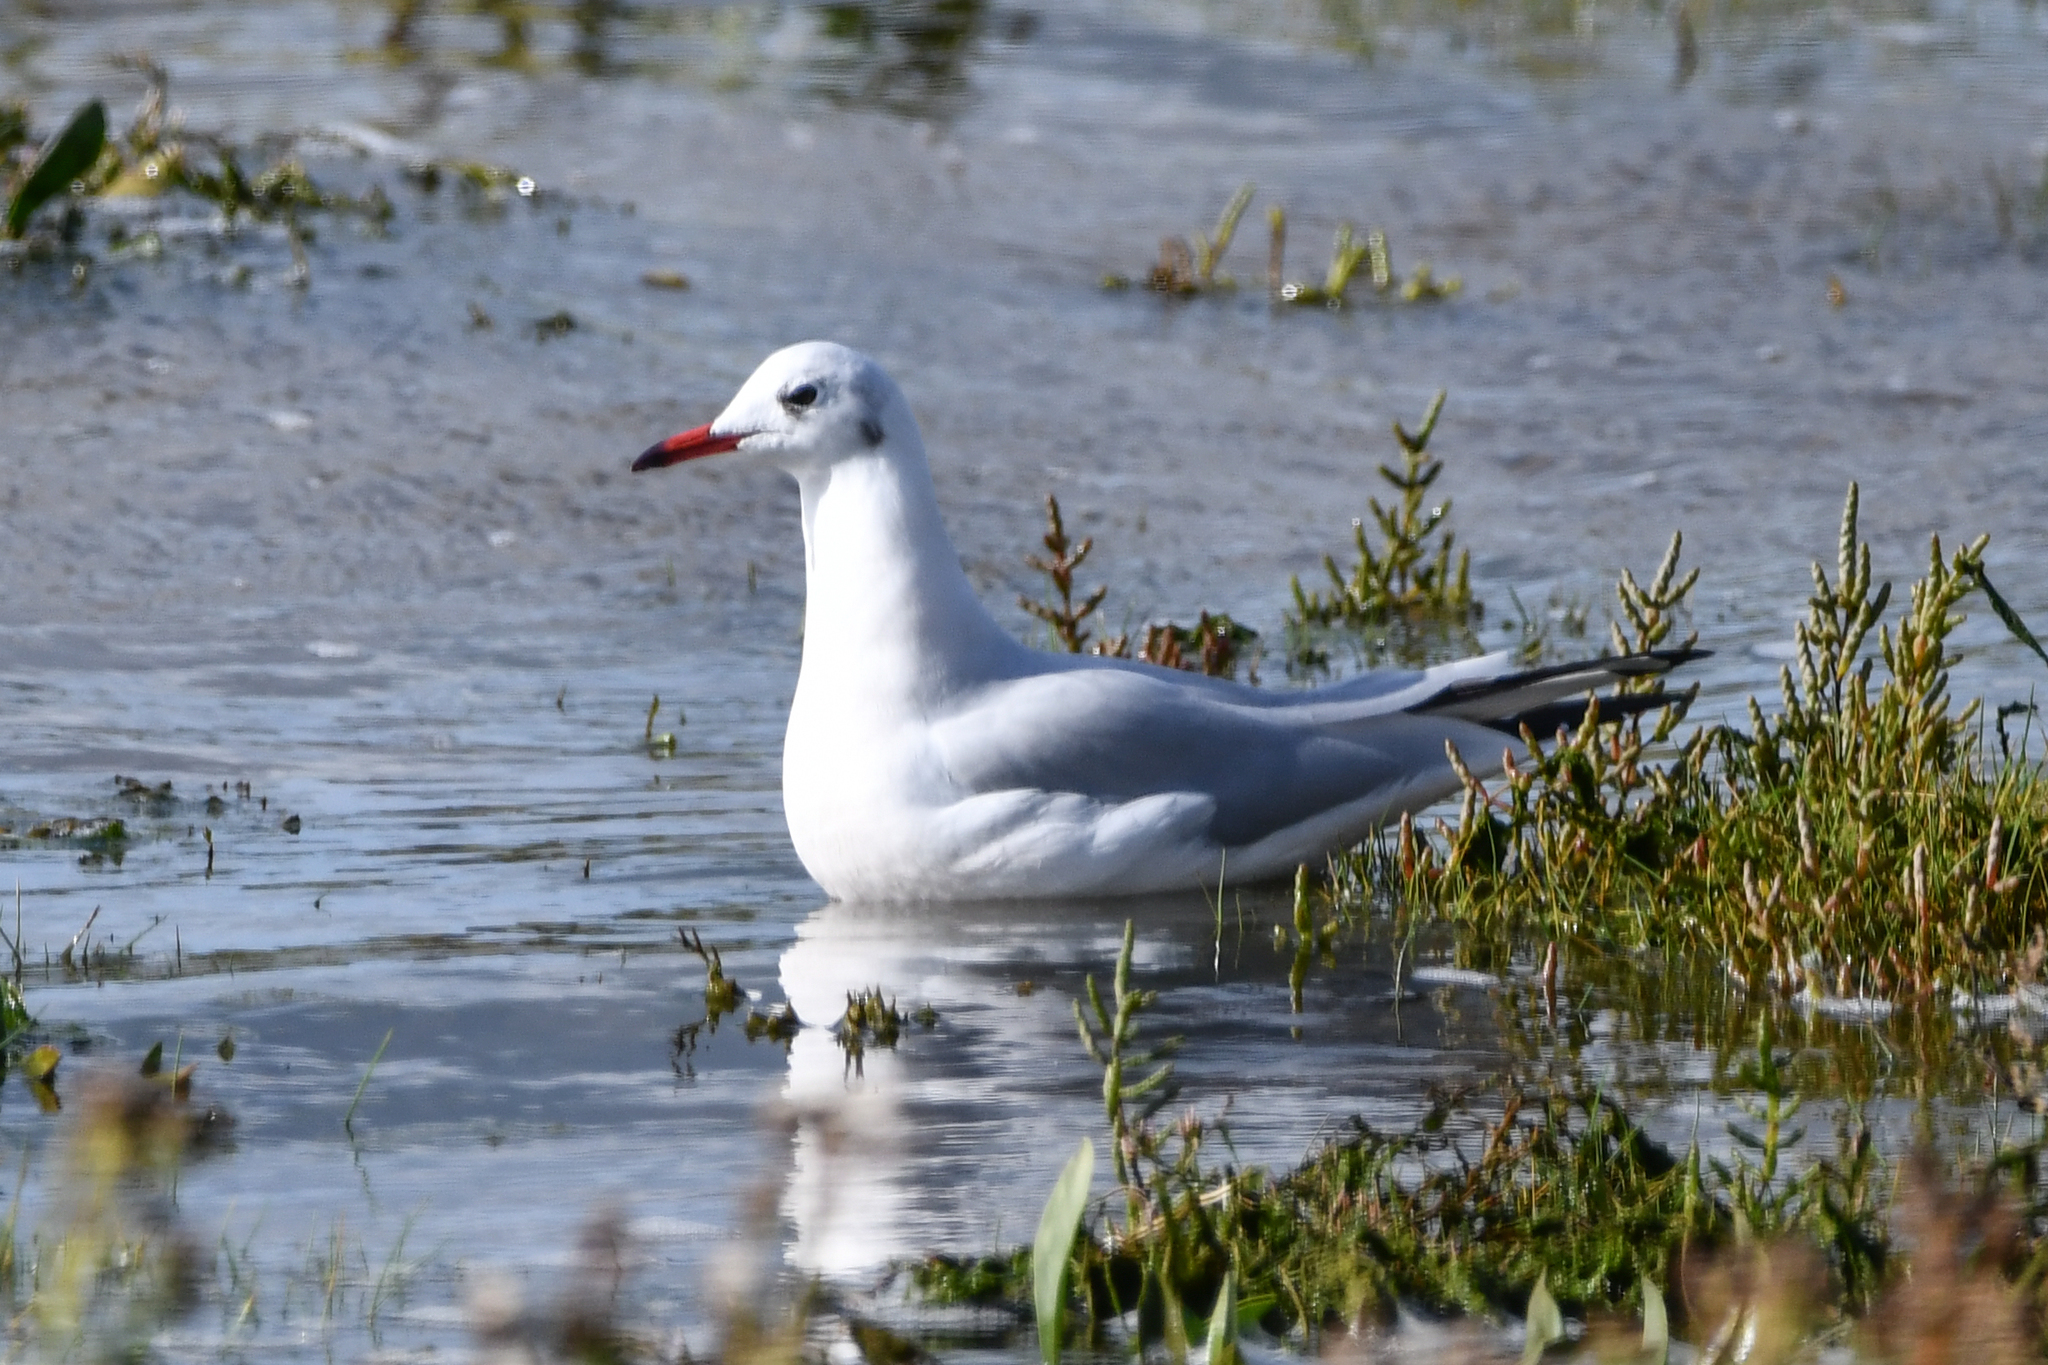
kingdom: Animalia
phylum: Chordata
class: Aves
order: Charadriiformes
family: Laridae
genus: Chroicocephalus
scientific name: Chroicocephalus ridibundus
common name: Black-headed gull
